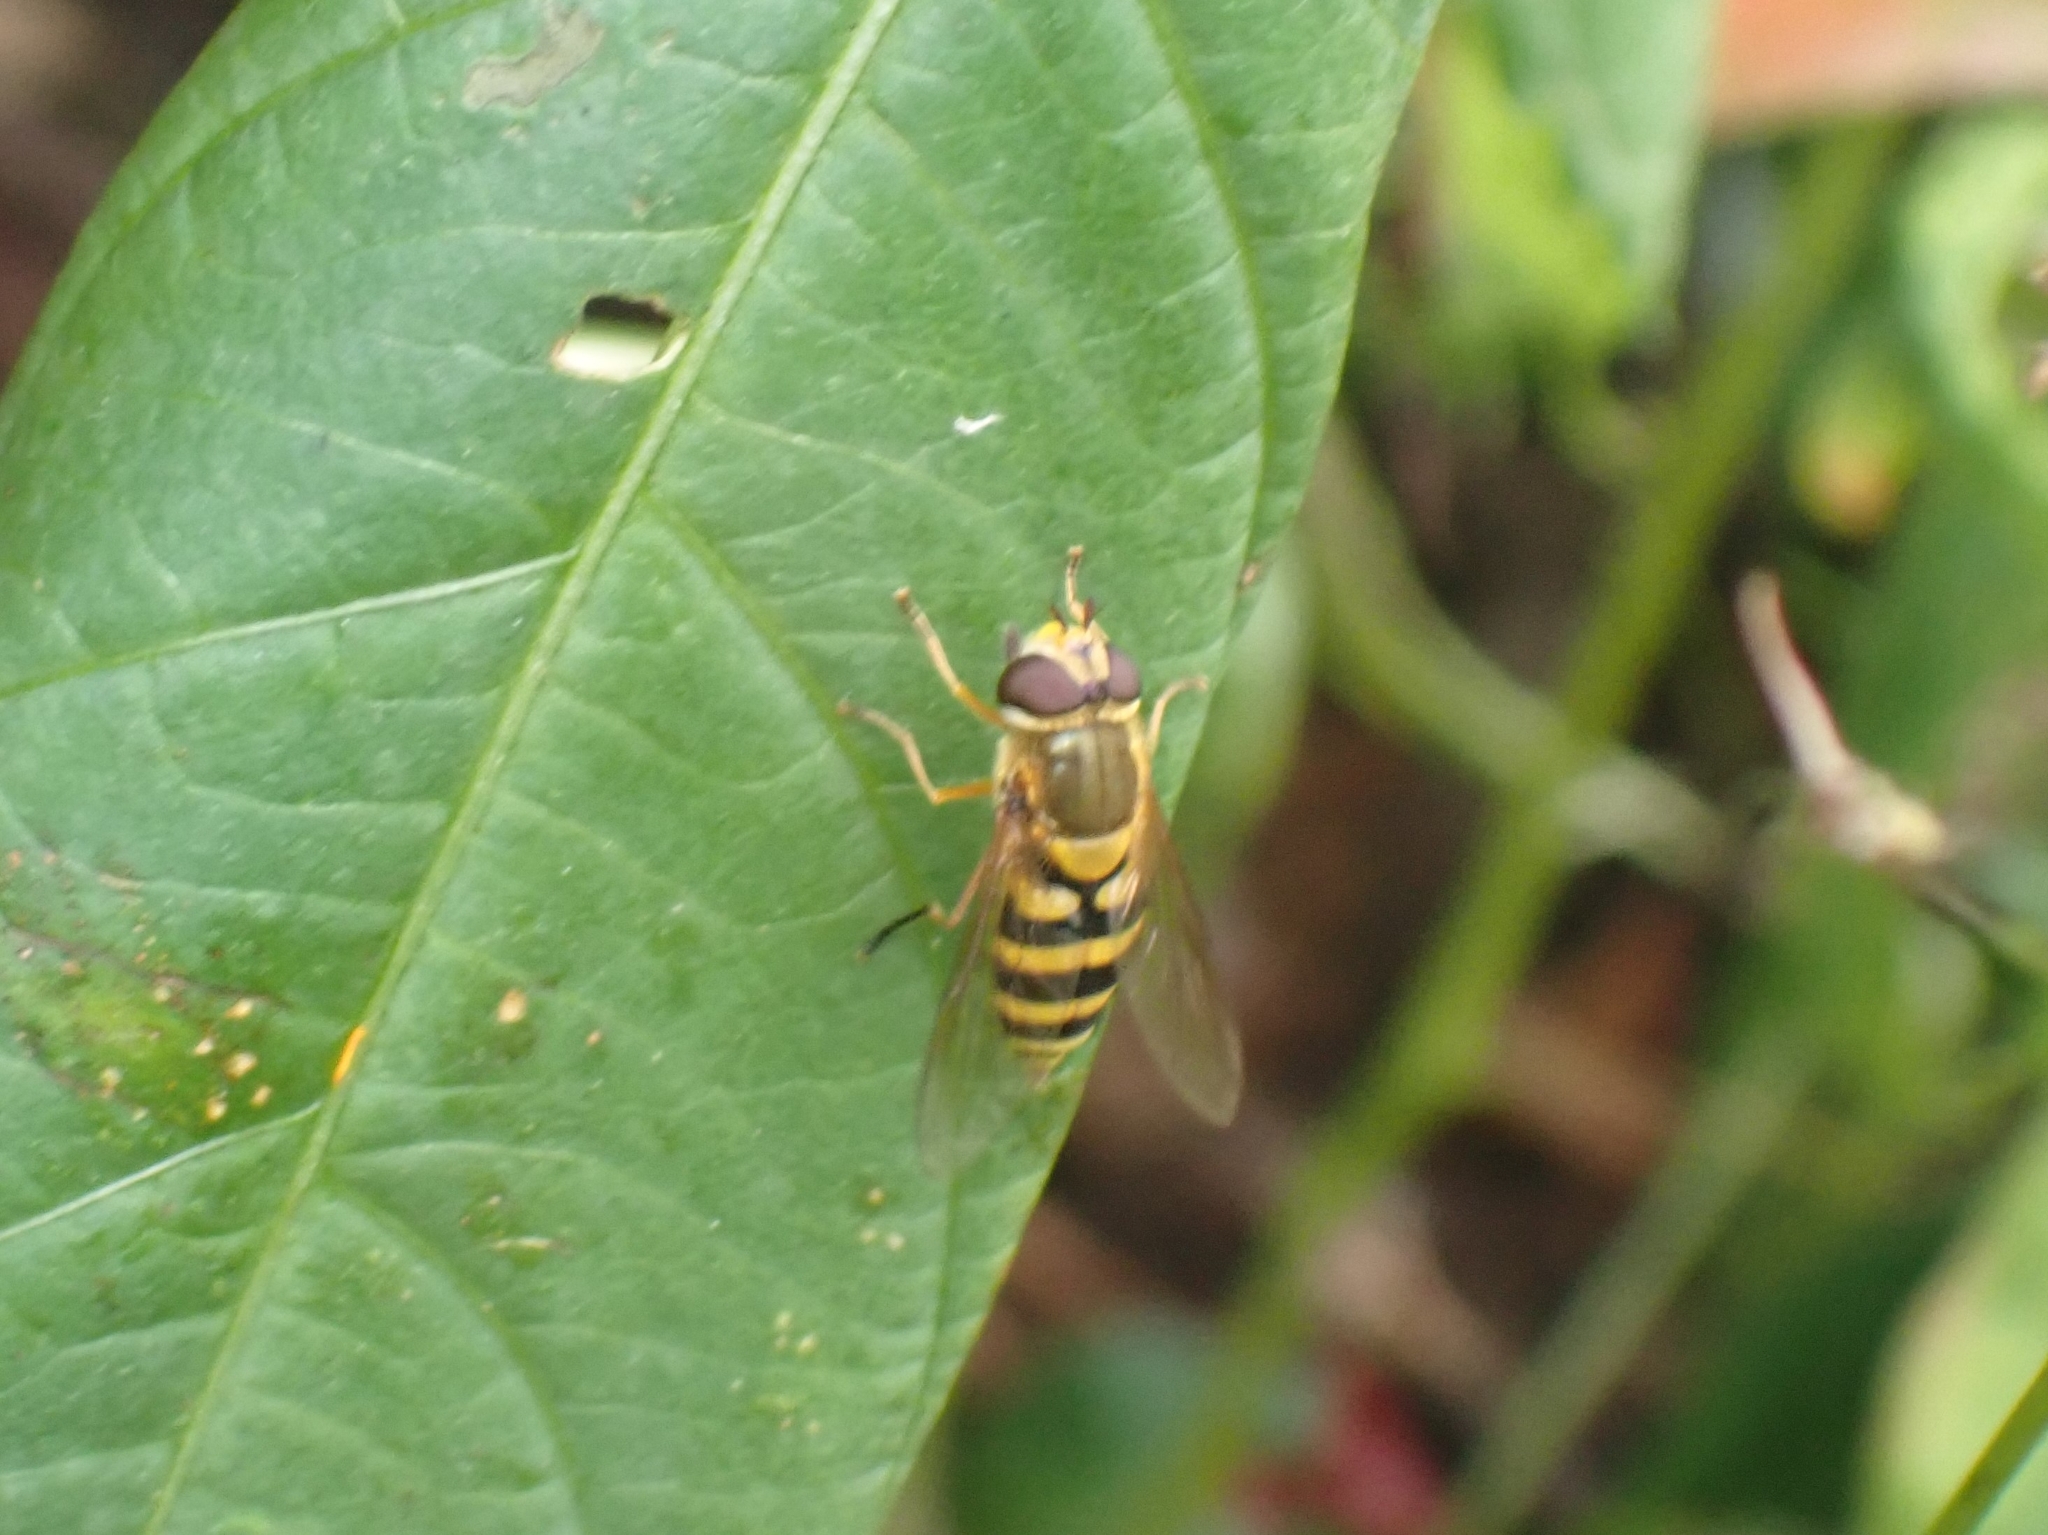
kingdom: Animalia
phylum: Arthropoda
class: Insecta
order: Diptera
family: Syrphidae
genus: Syrphus
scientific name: Syrphus ribesii
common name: Common flower fly
